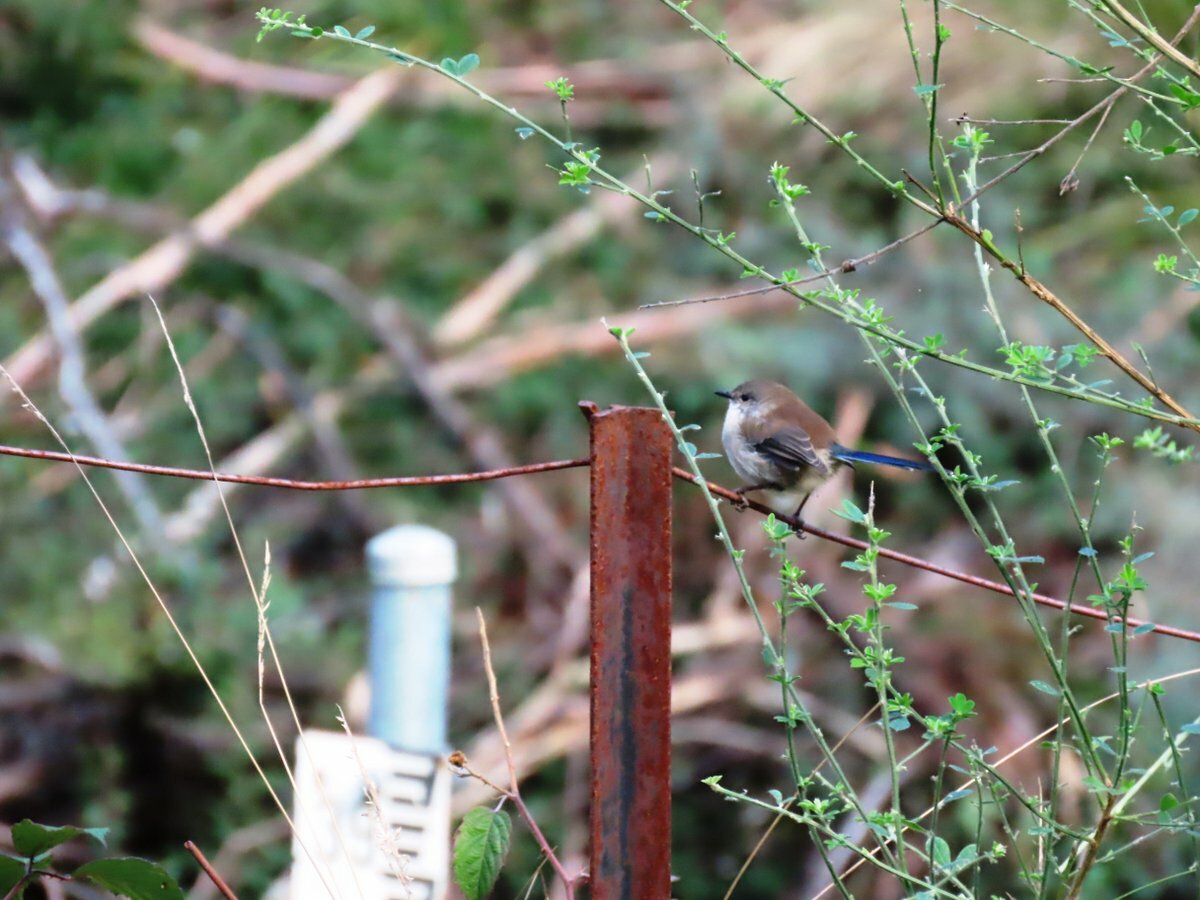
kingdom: Animalia
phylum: Chordata
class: Aves
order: Passeriformes
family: Maluridae
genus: Malurus
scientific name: Malurus cyaneus
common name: Superb fairywren
